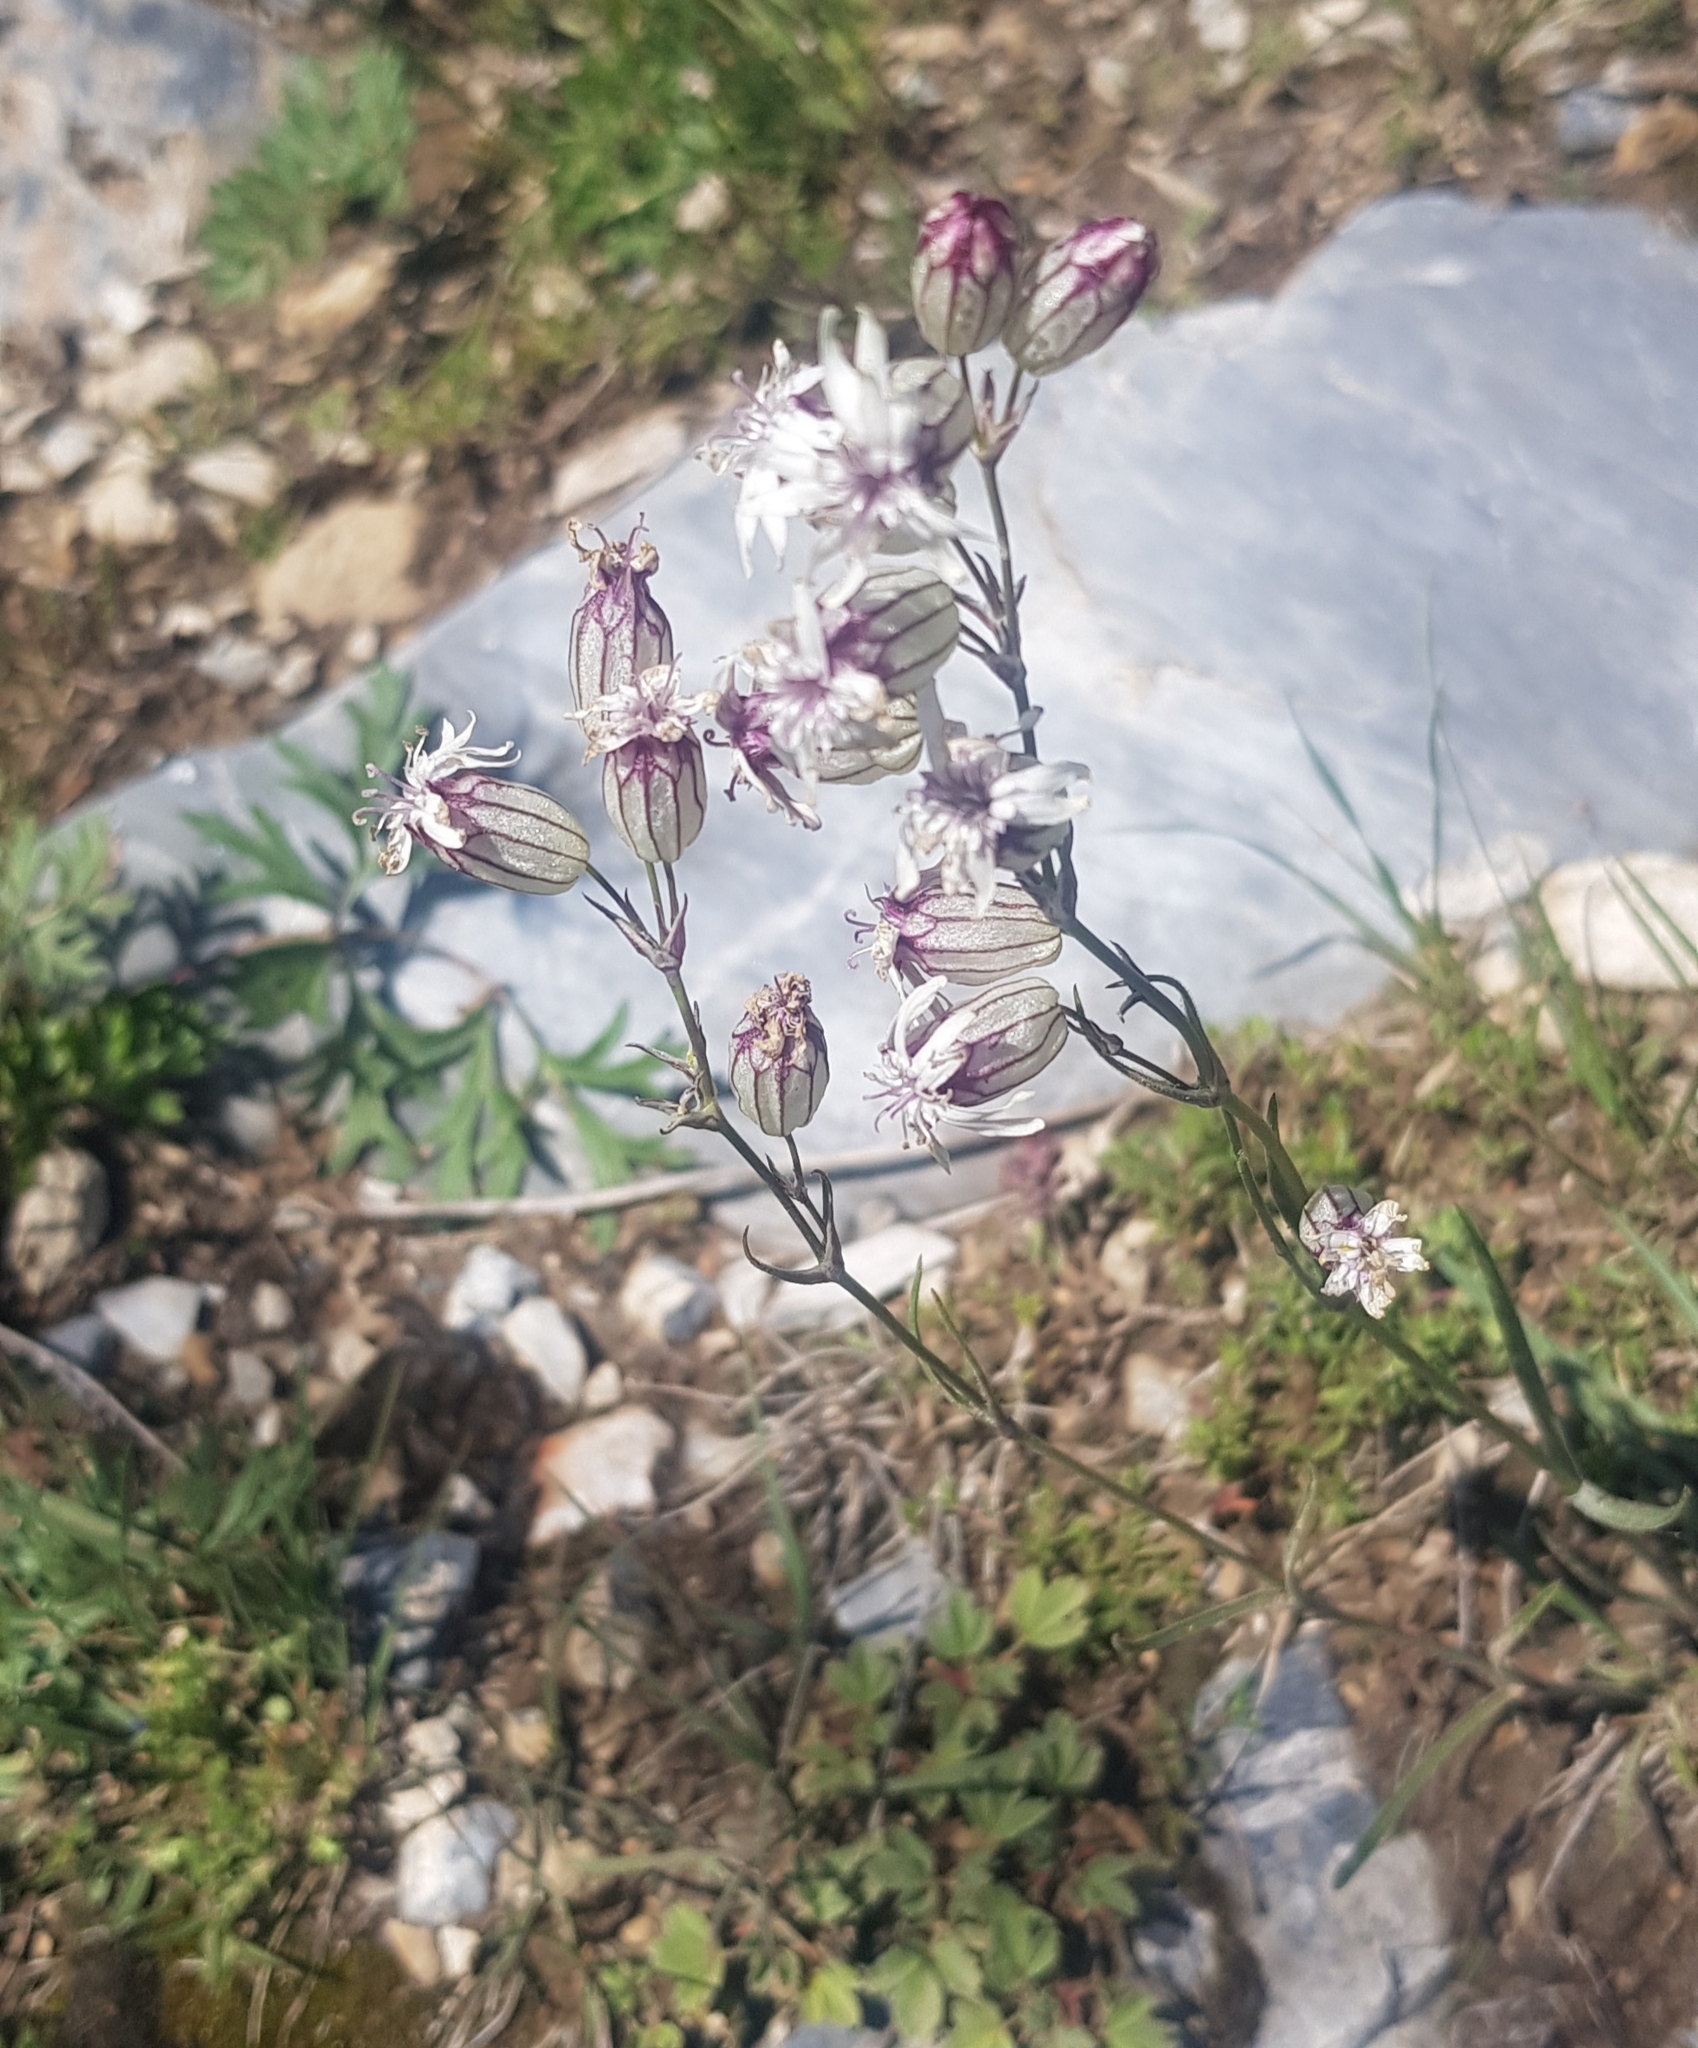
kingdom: Plantae
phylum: Tracheophyta
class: Magnoliopsida
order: Caryophyllales
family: Caryophyllaceae
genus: Silene
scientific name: Silene repens
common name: Pink campion
